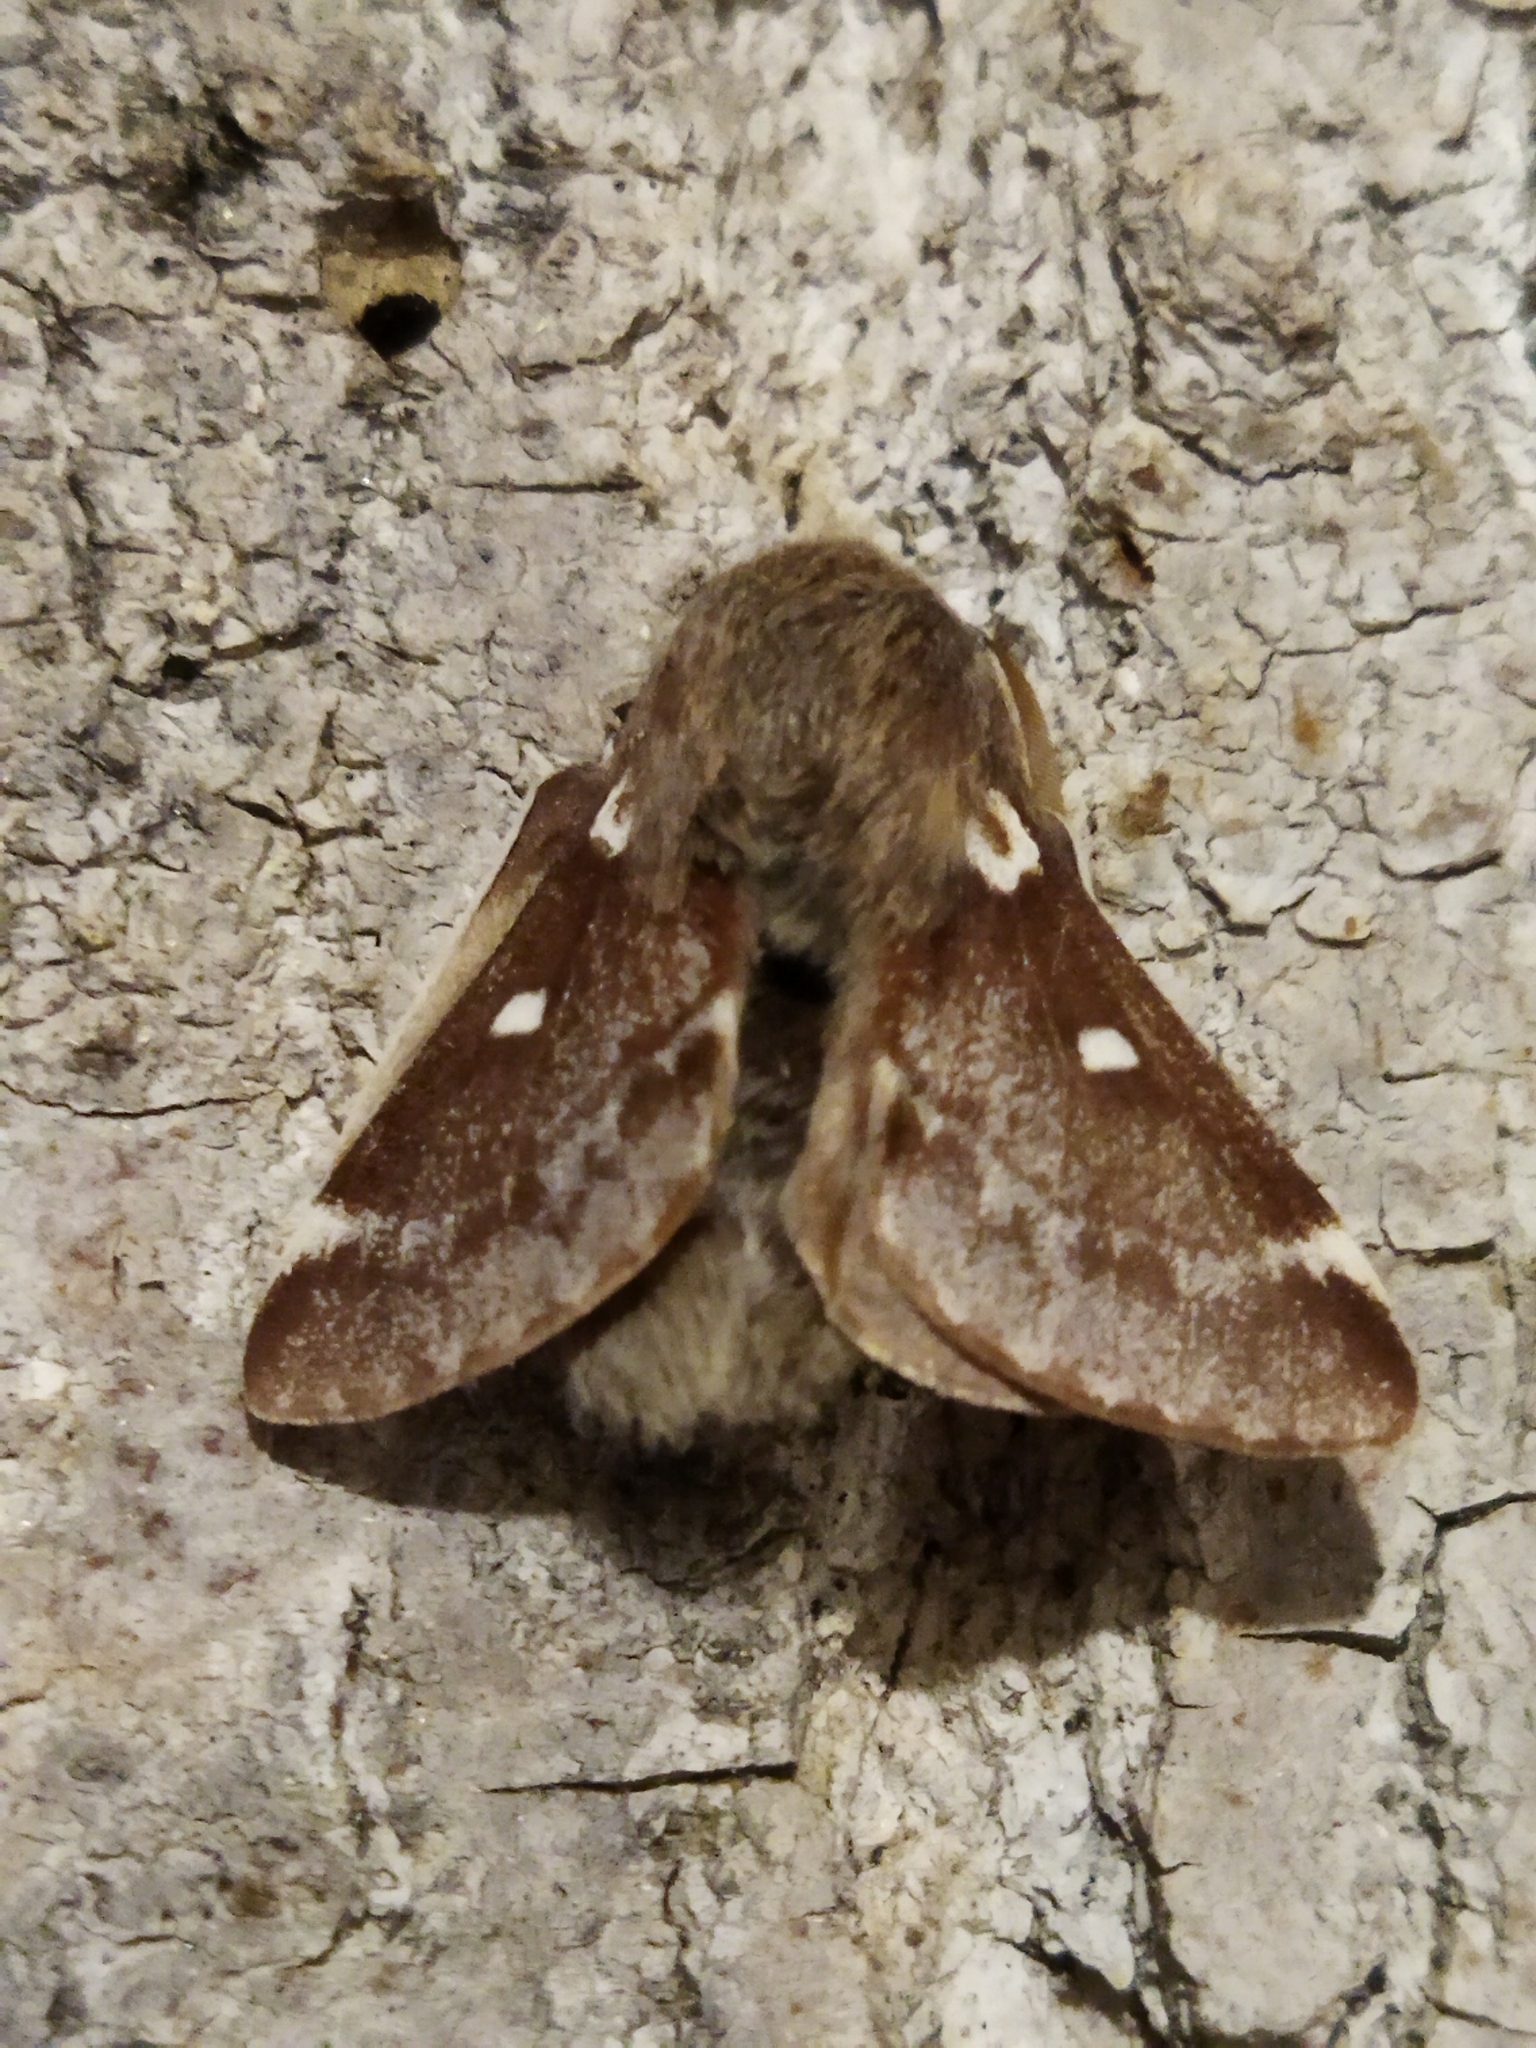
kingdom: Animalia
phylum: Arthropoda
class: Insecta
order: Lepidoptera
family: Lasiocampidae
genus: Eriogaster
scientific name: Eriogaster lanestris
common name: Small eggar
